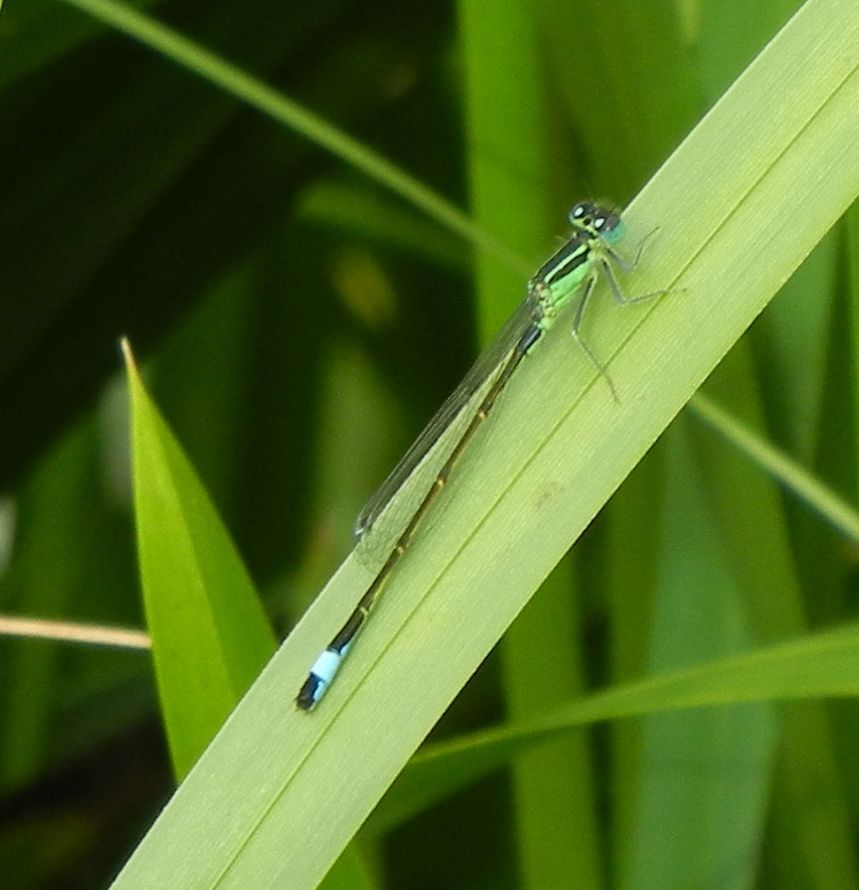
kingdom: Animalia
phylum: Arthropoda
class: Insecta
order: Odonata
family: Coenagrionidae
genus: Ischnura
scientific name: Ischnura elegans
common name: Blue-tailed damselfly
